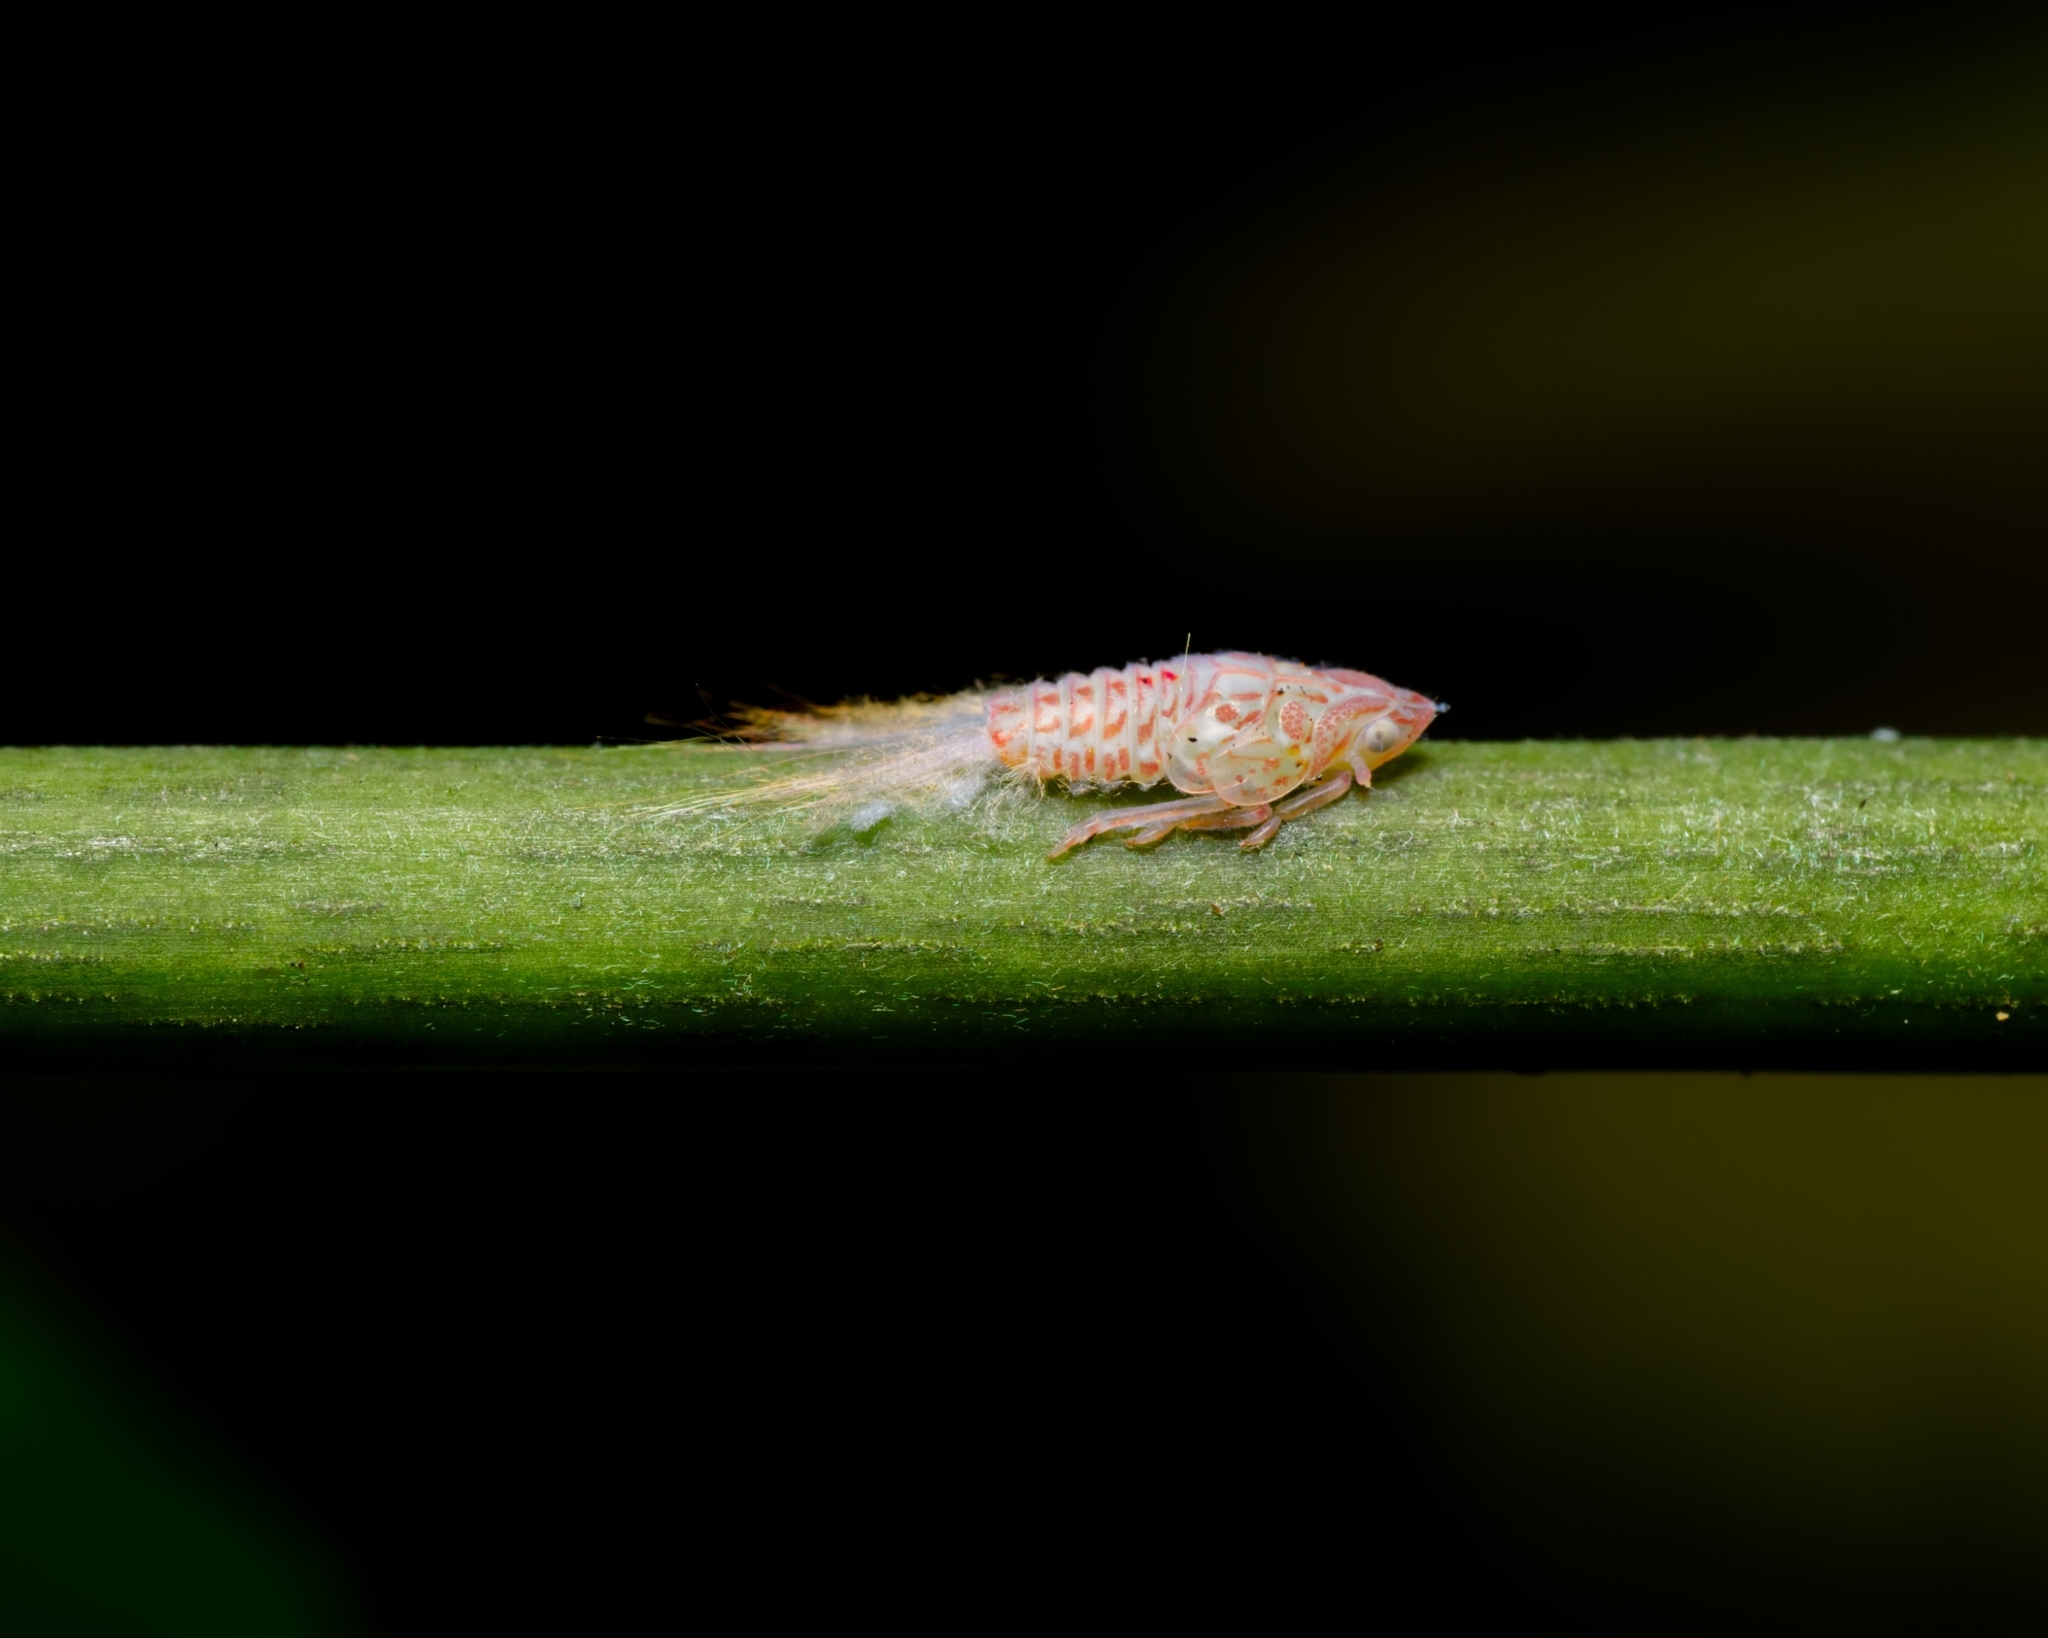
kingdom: Animalia
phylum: Arthropoda
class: Insecta
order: Hemiptera
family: Flatidae
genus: Siphanta
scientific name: Siphanta acuta
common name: Torpedo bug
